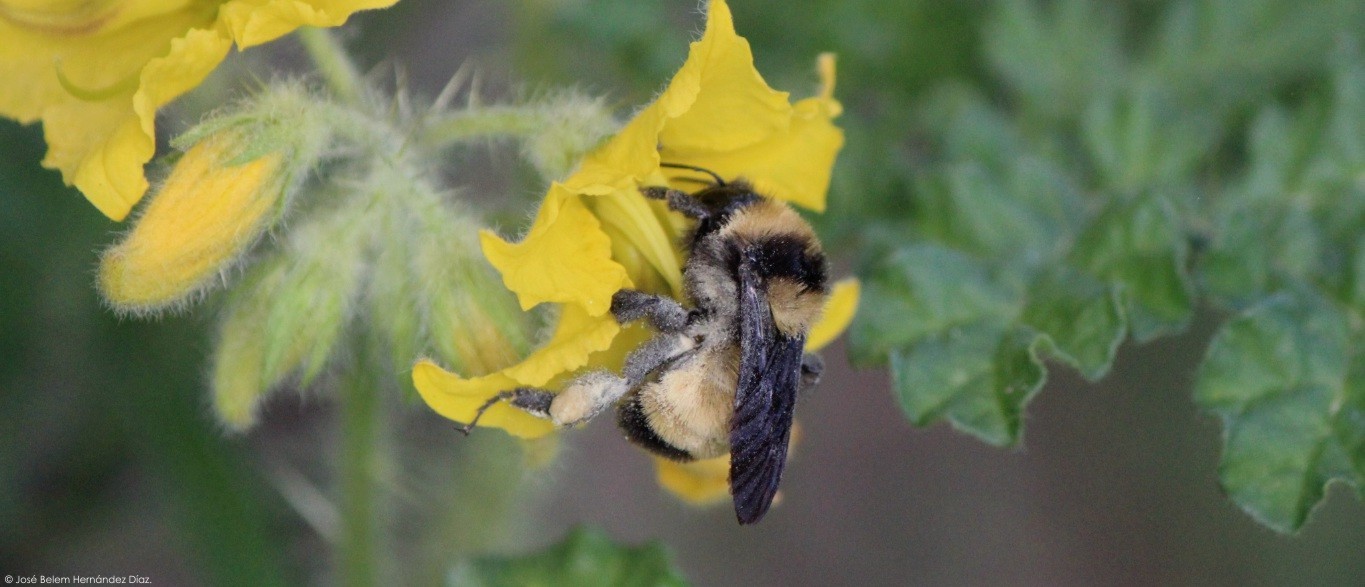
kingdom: Animalia
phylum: Arthropoda
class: Insecta
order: Hymenoptera
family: Apidae
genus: Bombus
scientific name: Bombus sonorus
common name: Sonoran bumble bee
